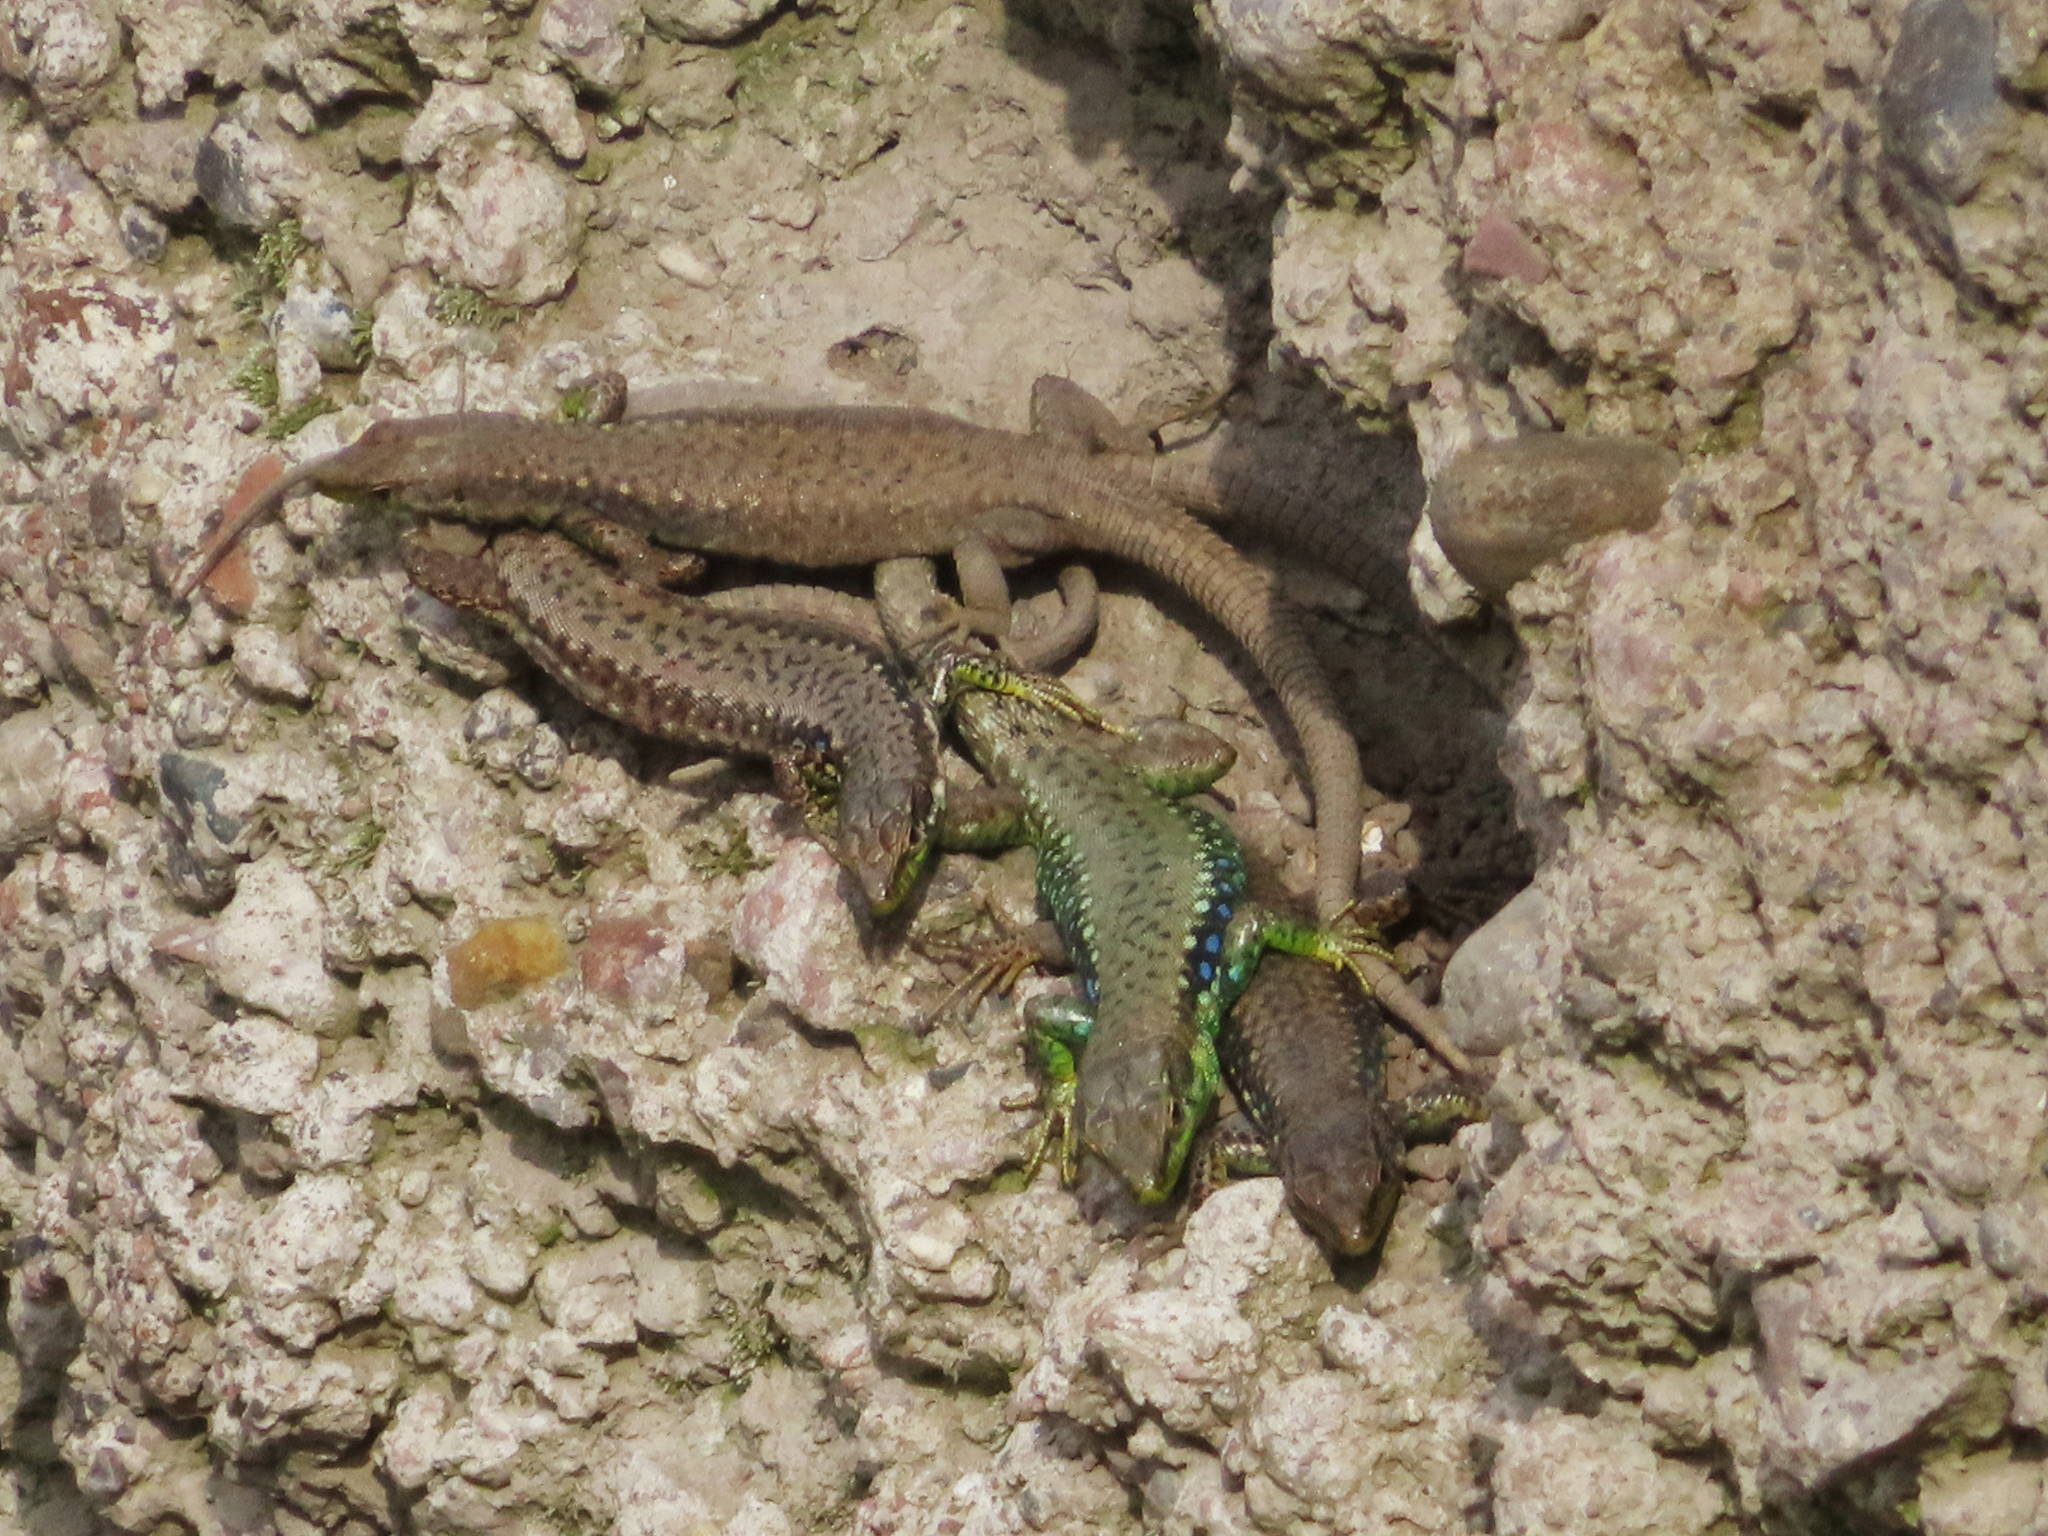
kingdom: Animalia
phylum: Chordata
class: Squamata
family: Lacertidae
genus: Darevskia
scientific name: Darevskia raddei
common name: Radde's lizard
